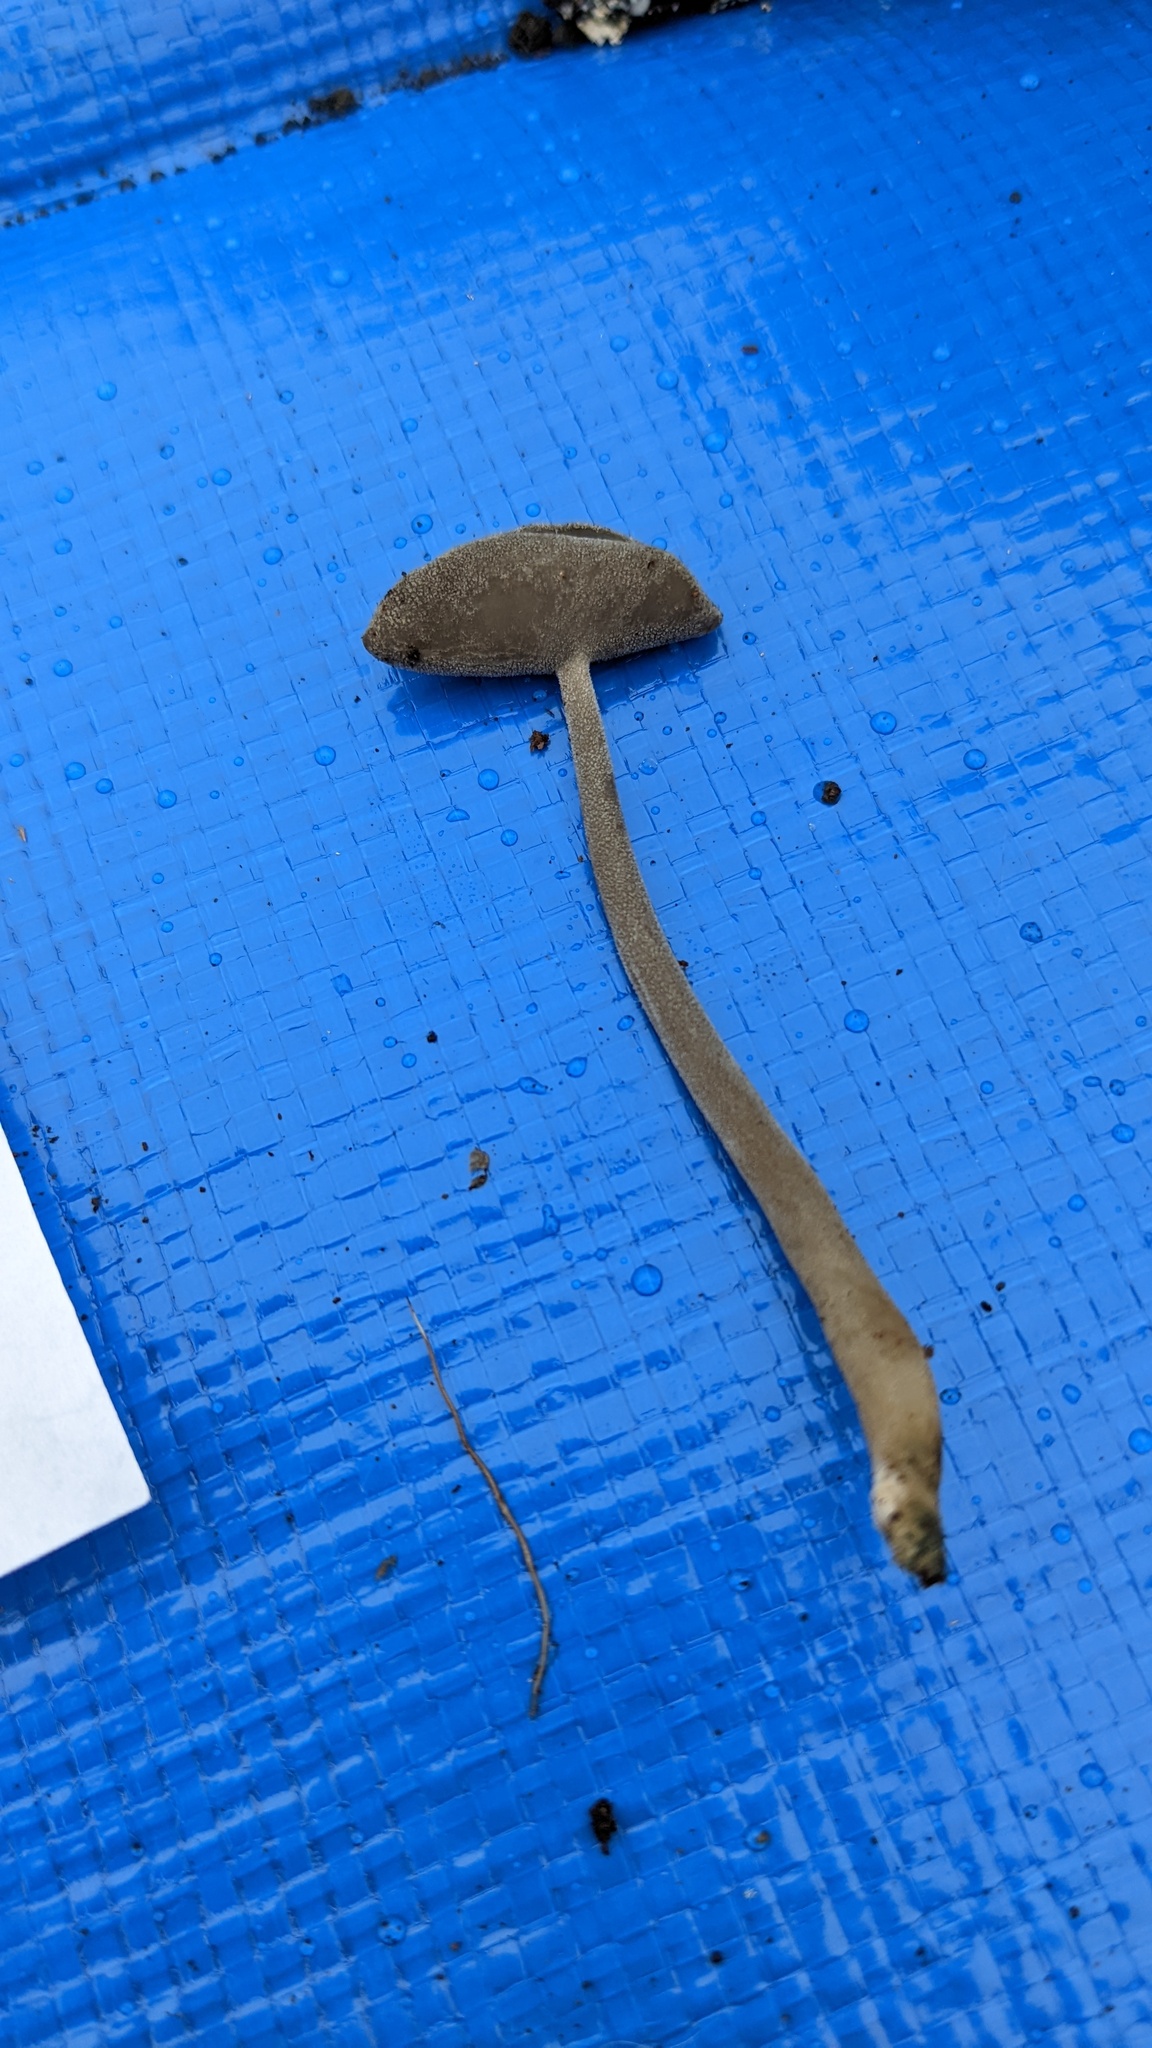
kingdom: Fungi
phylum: Ascomycota
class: Pezizomycetes
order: Pezizales
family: Helvellaceae
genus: Helvella
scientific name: Helvella macropus
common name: Felt saddle
